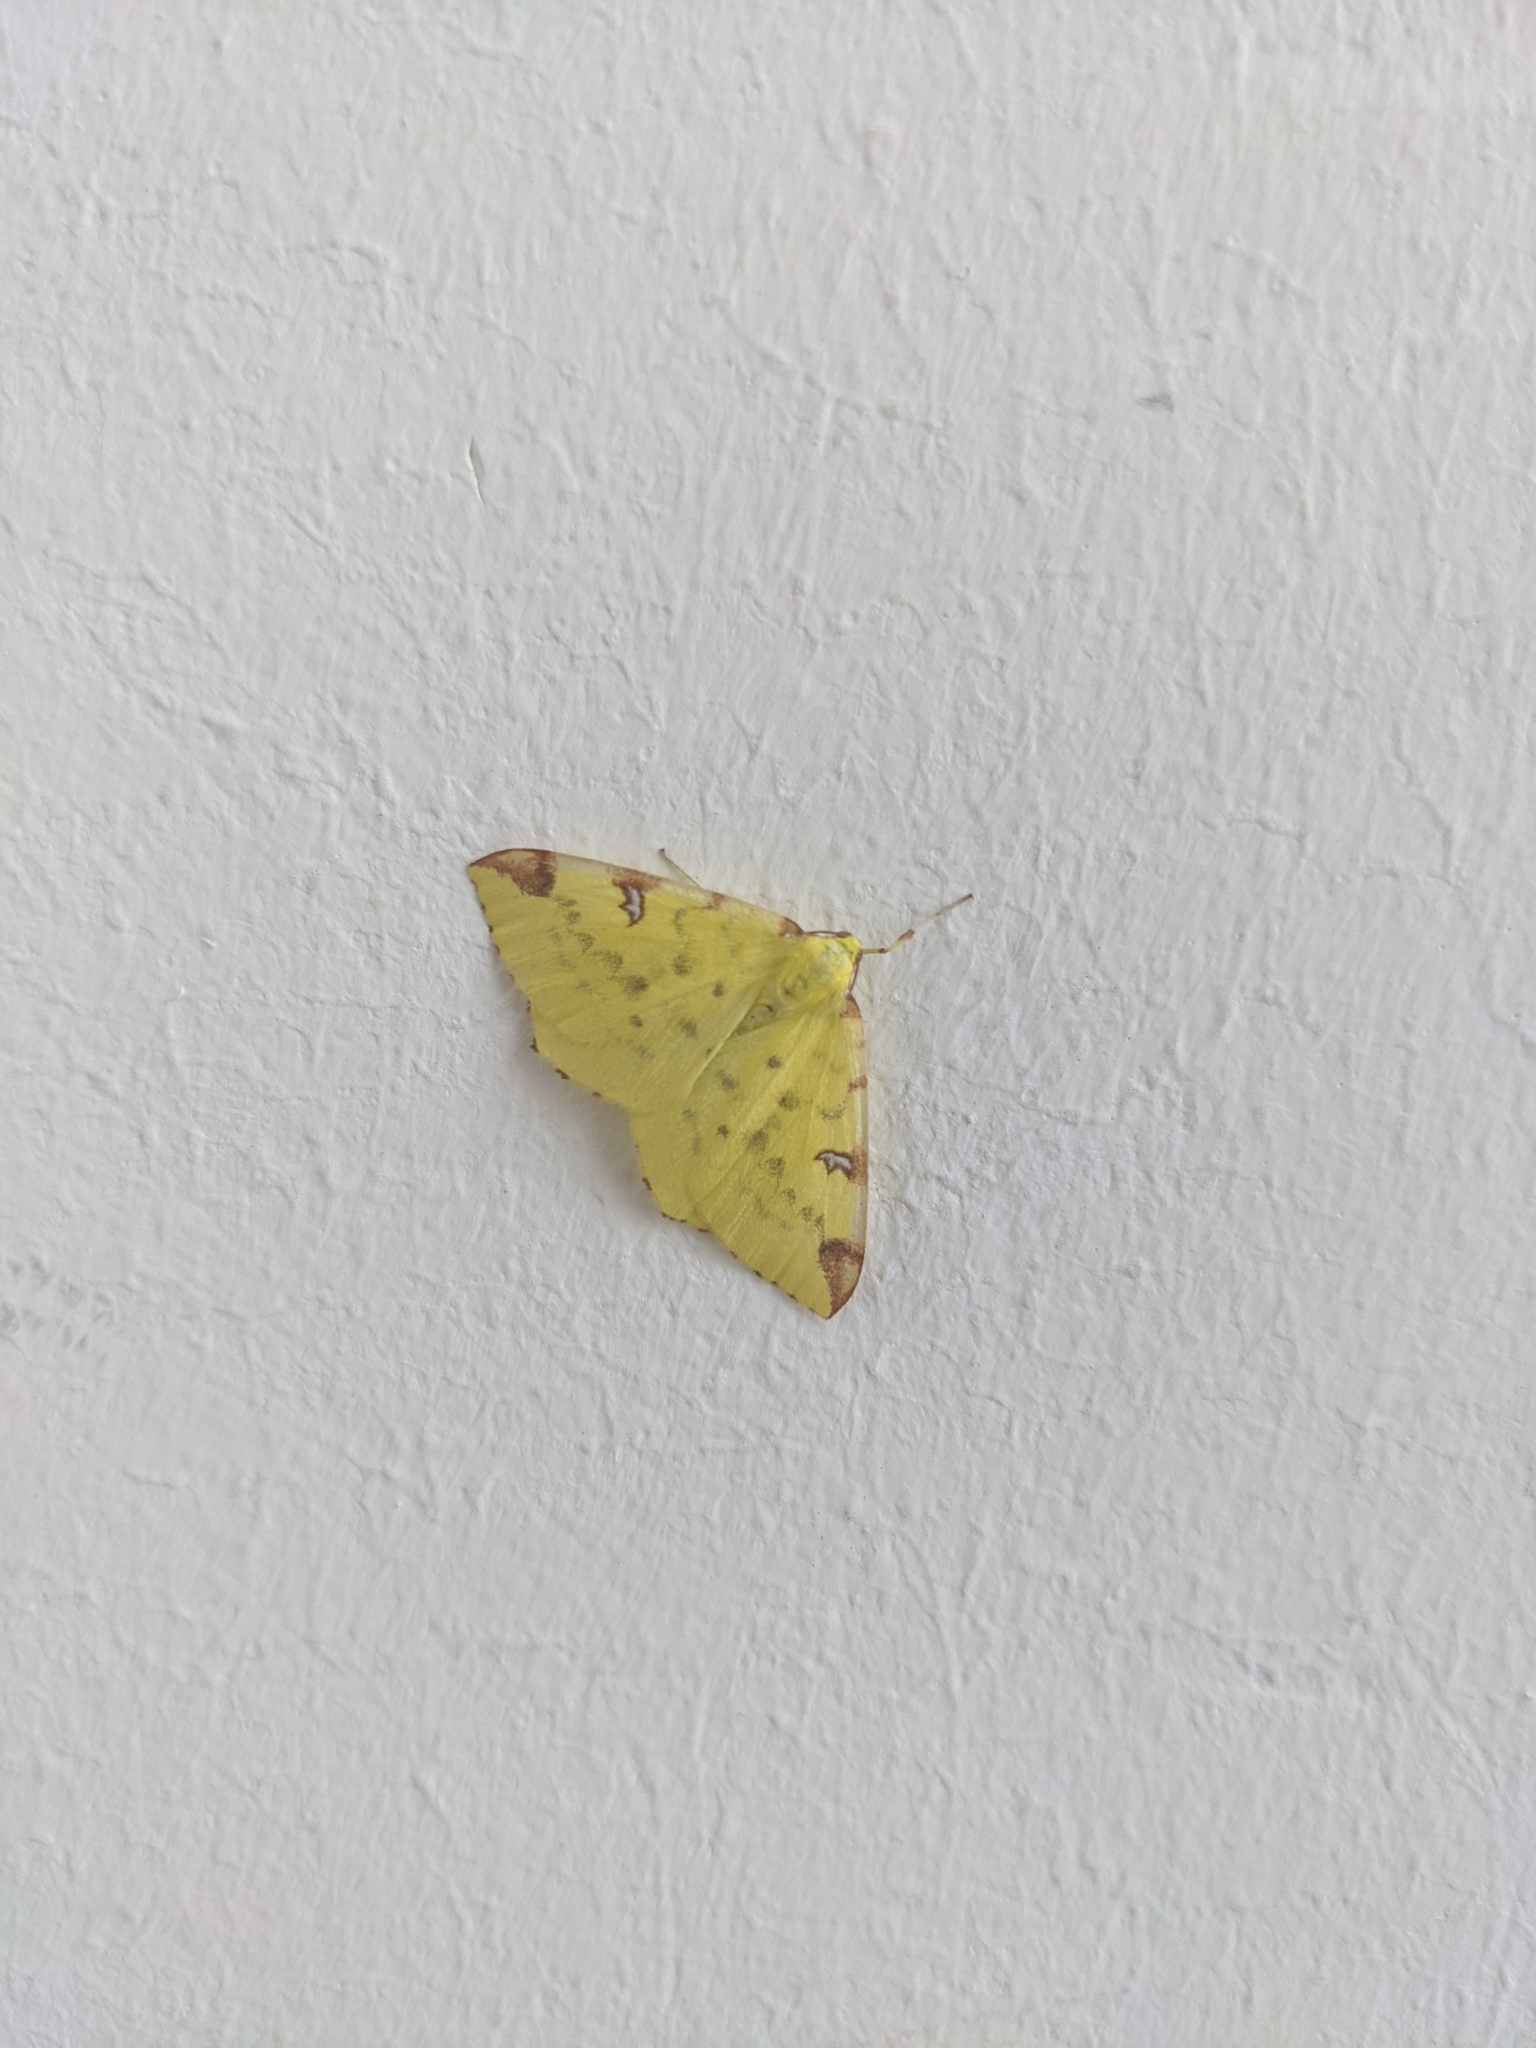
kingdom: Animalia
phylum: Arthropoda
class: Insecta
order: Lepidoptera
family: Geometridae
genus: Opisthograptis
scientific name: Opisthograptis luteolata
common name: Brimstone moth
